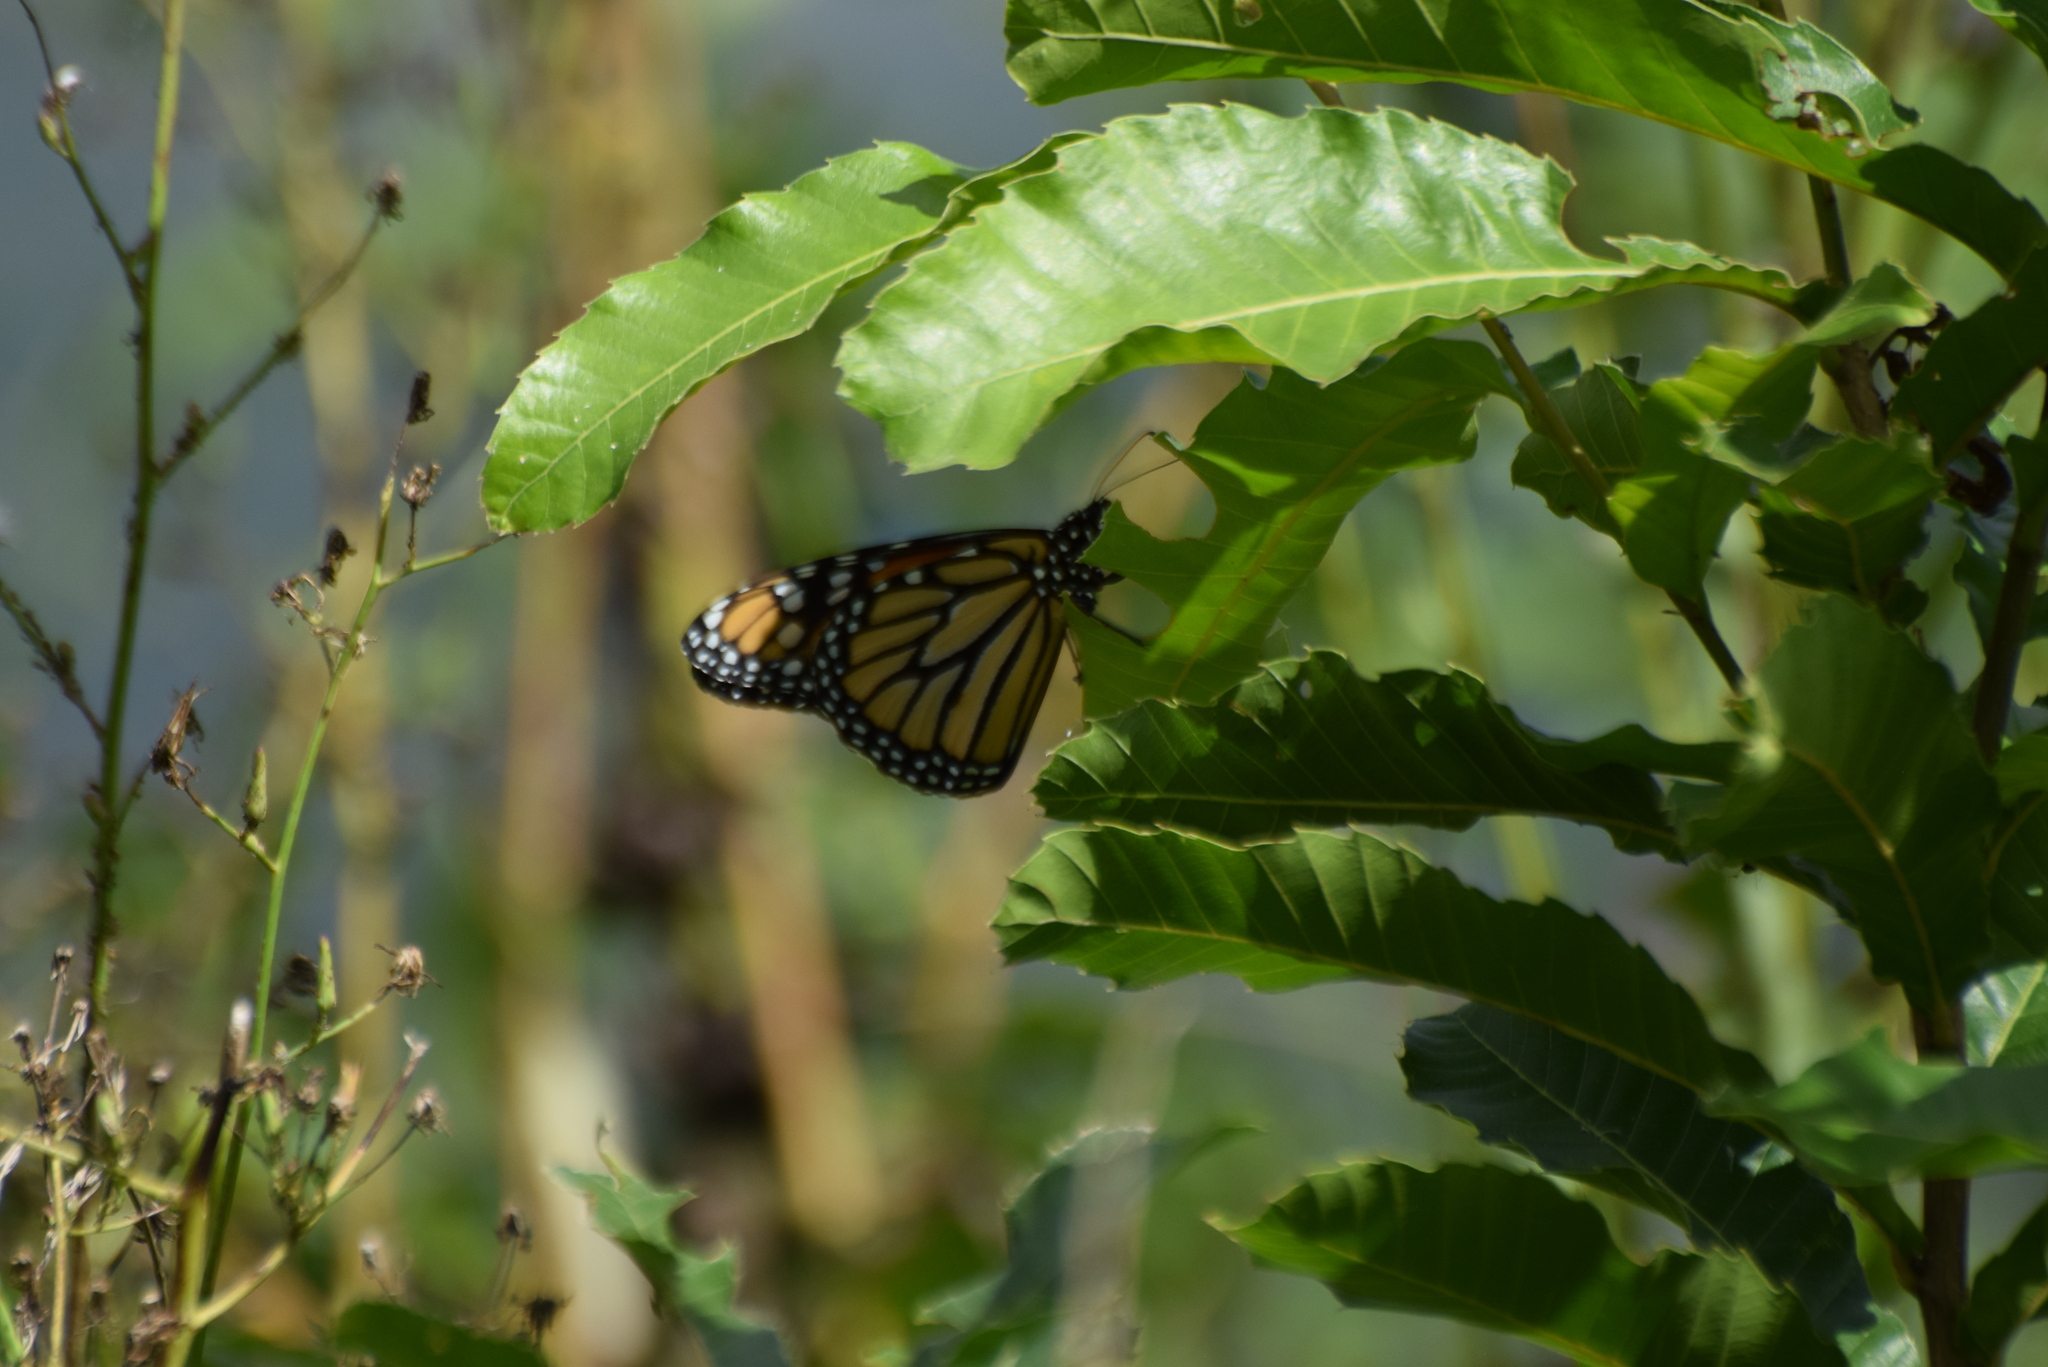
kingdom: Animalia
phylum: Arthropoda
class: Insecta
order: Lepidoptera
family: Nymphalidae
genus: Danaus
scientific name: Danaus plexippus
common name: Monarch
